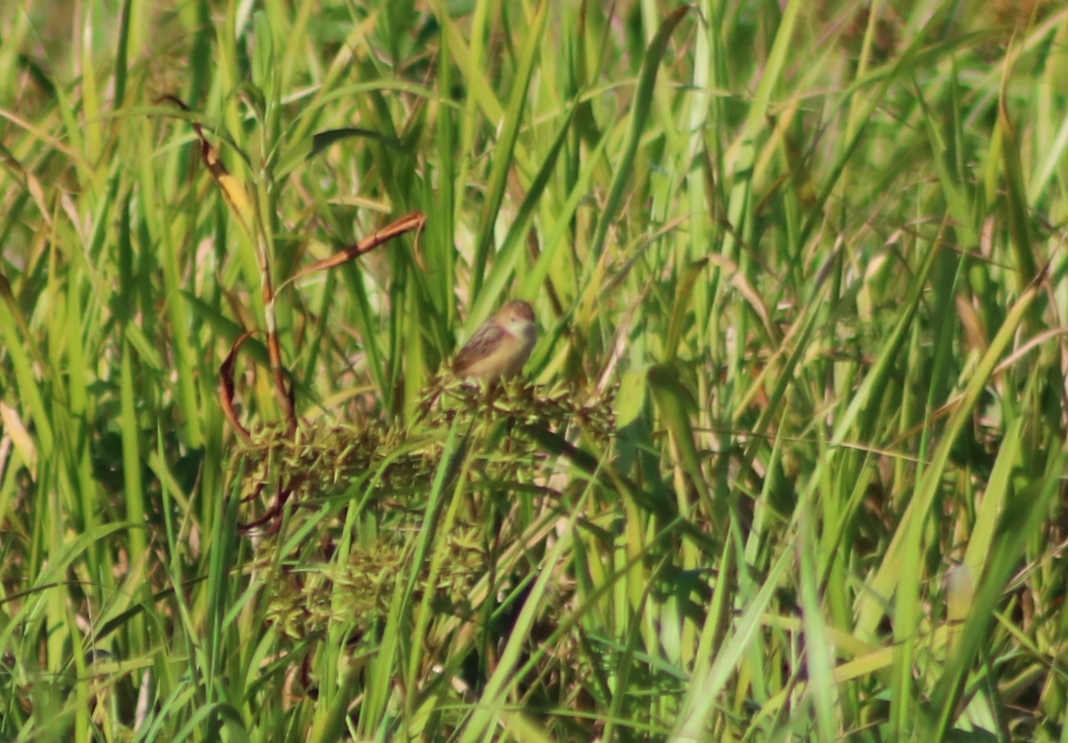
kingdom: Animalia
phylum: Chordata
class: Aves
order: Passeriformes
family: Cisticolidae
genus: Cisticola
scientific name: Cisticola exilis
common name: Golden-headed cisticola
